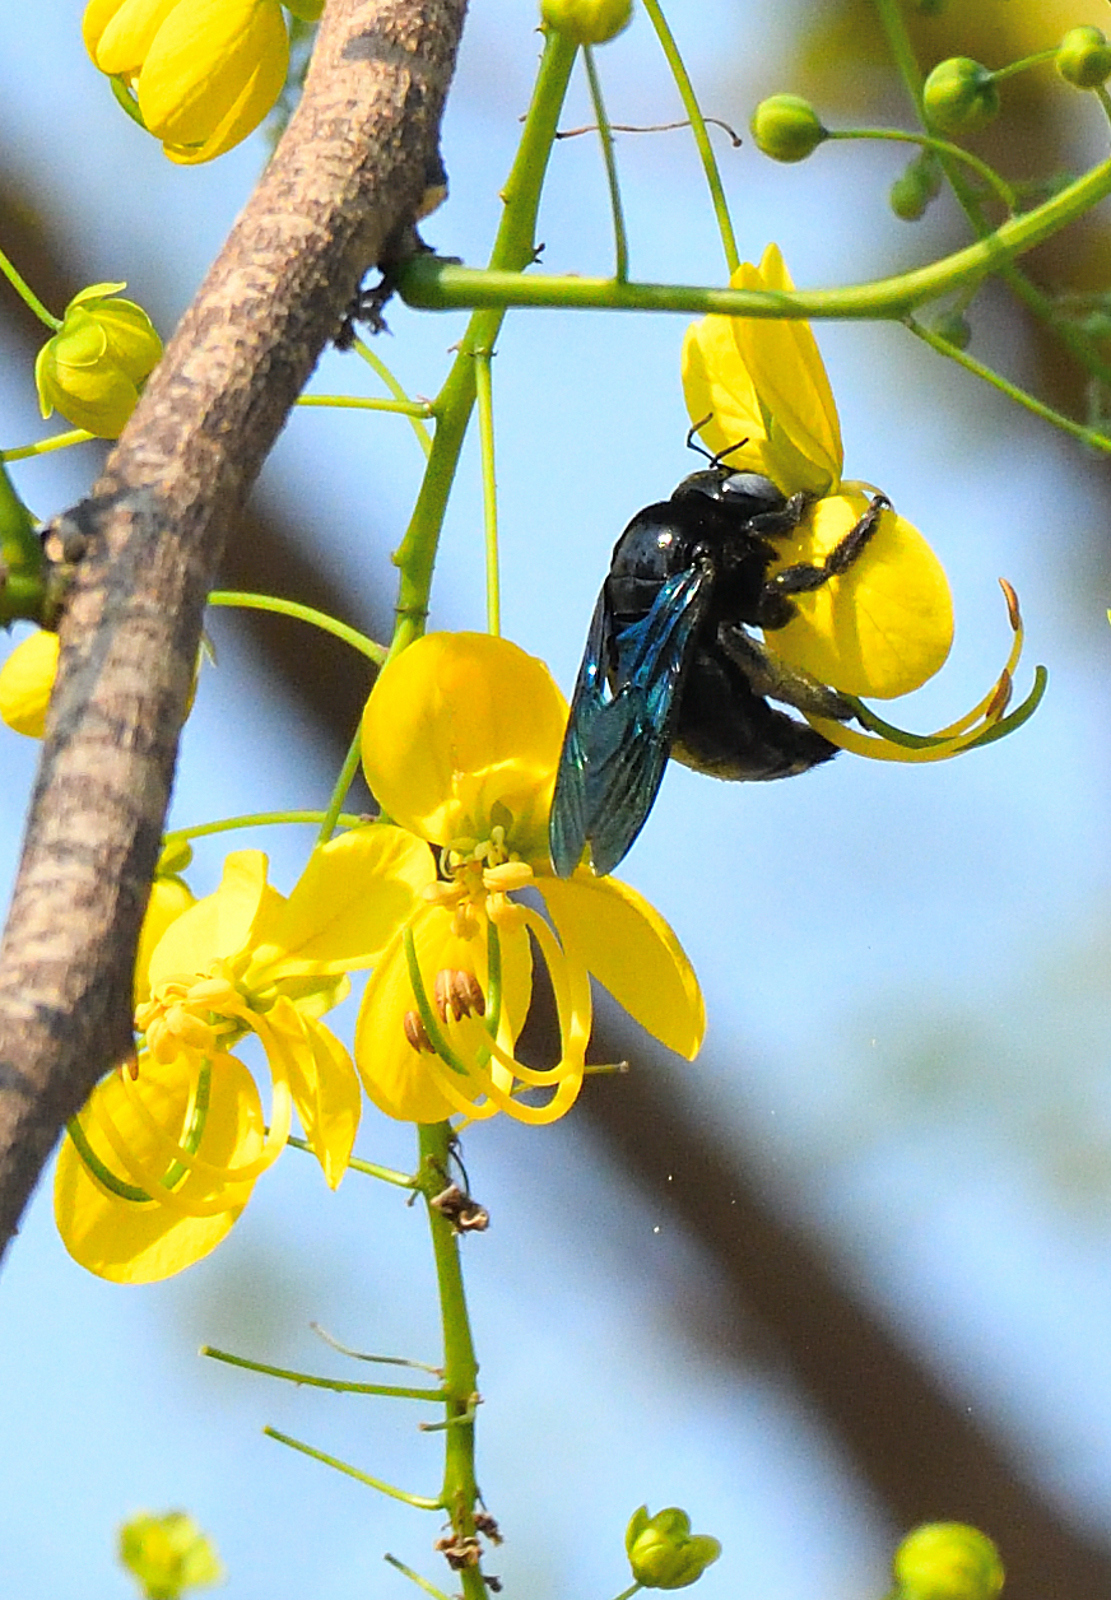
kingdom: Animalia
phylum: Arthropoda
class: Insecta
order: Hymenoptera
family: Apidae
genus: Xylocopa
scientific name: Xylocopa tenuiscapa
